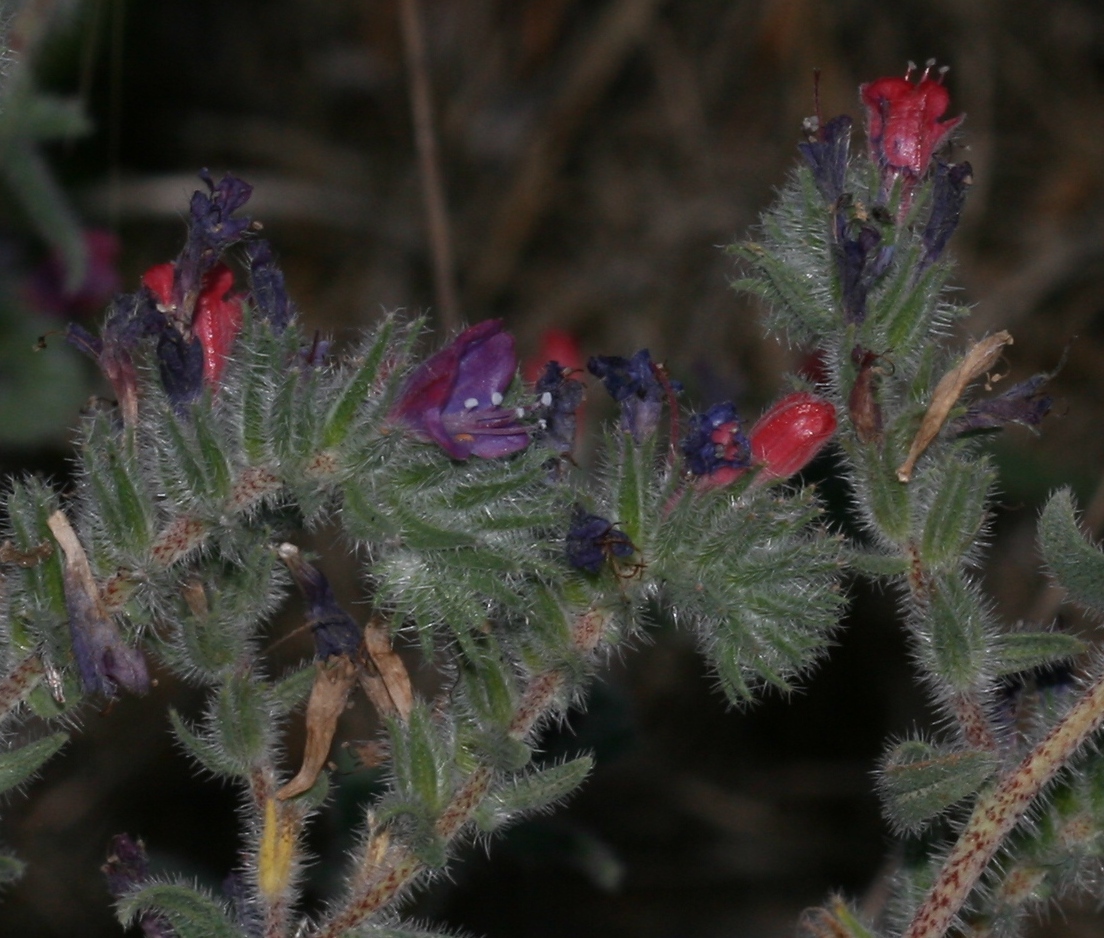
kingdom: Plantae
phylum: Tracheophyta
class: Magnoliopsida
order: Boraginales
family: Boraginaceae
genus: Echium
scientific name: Echium angustifolium
